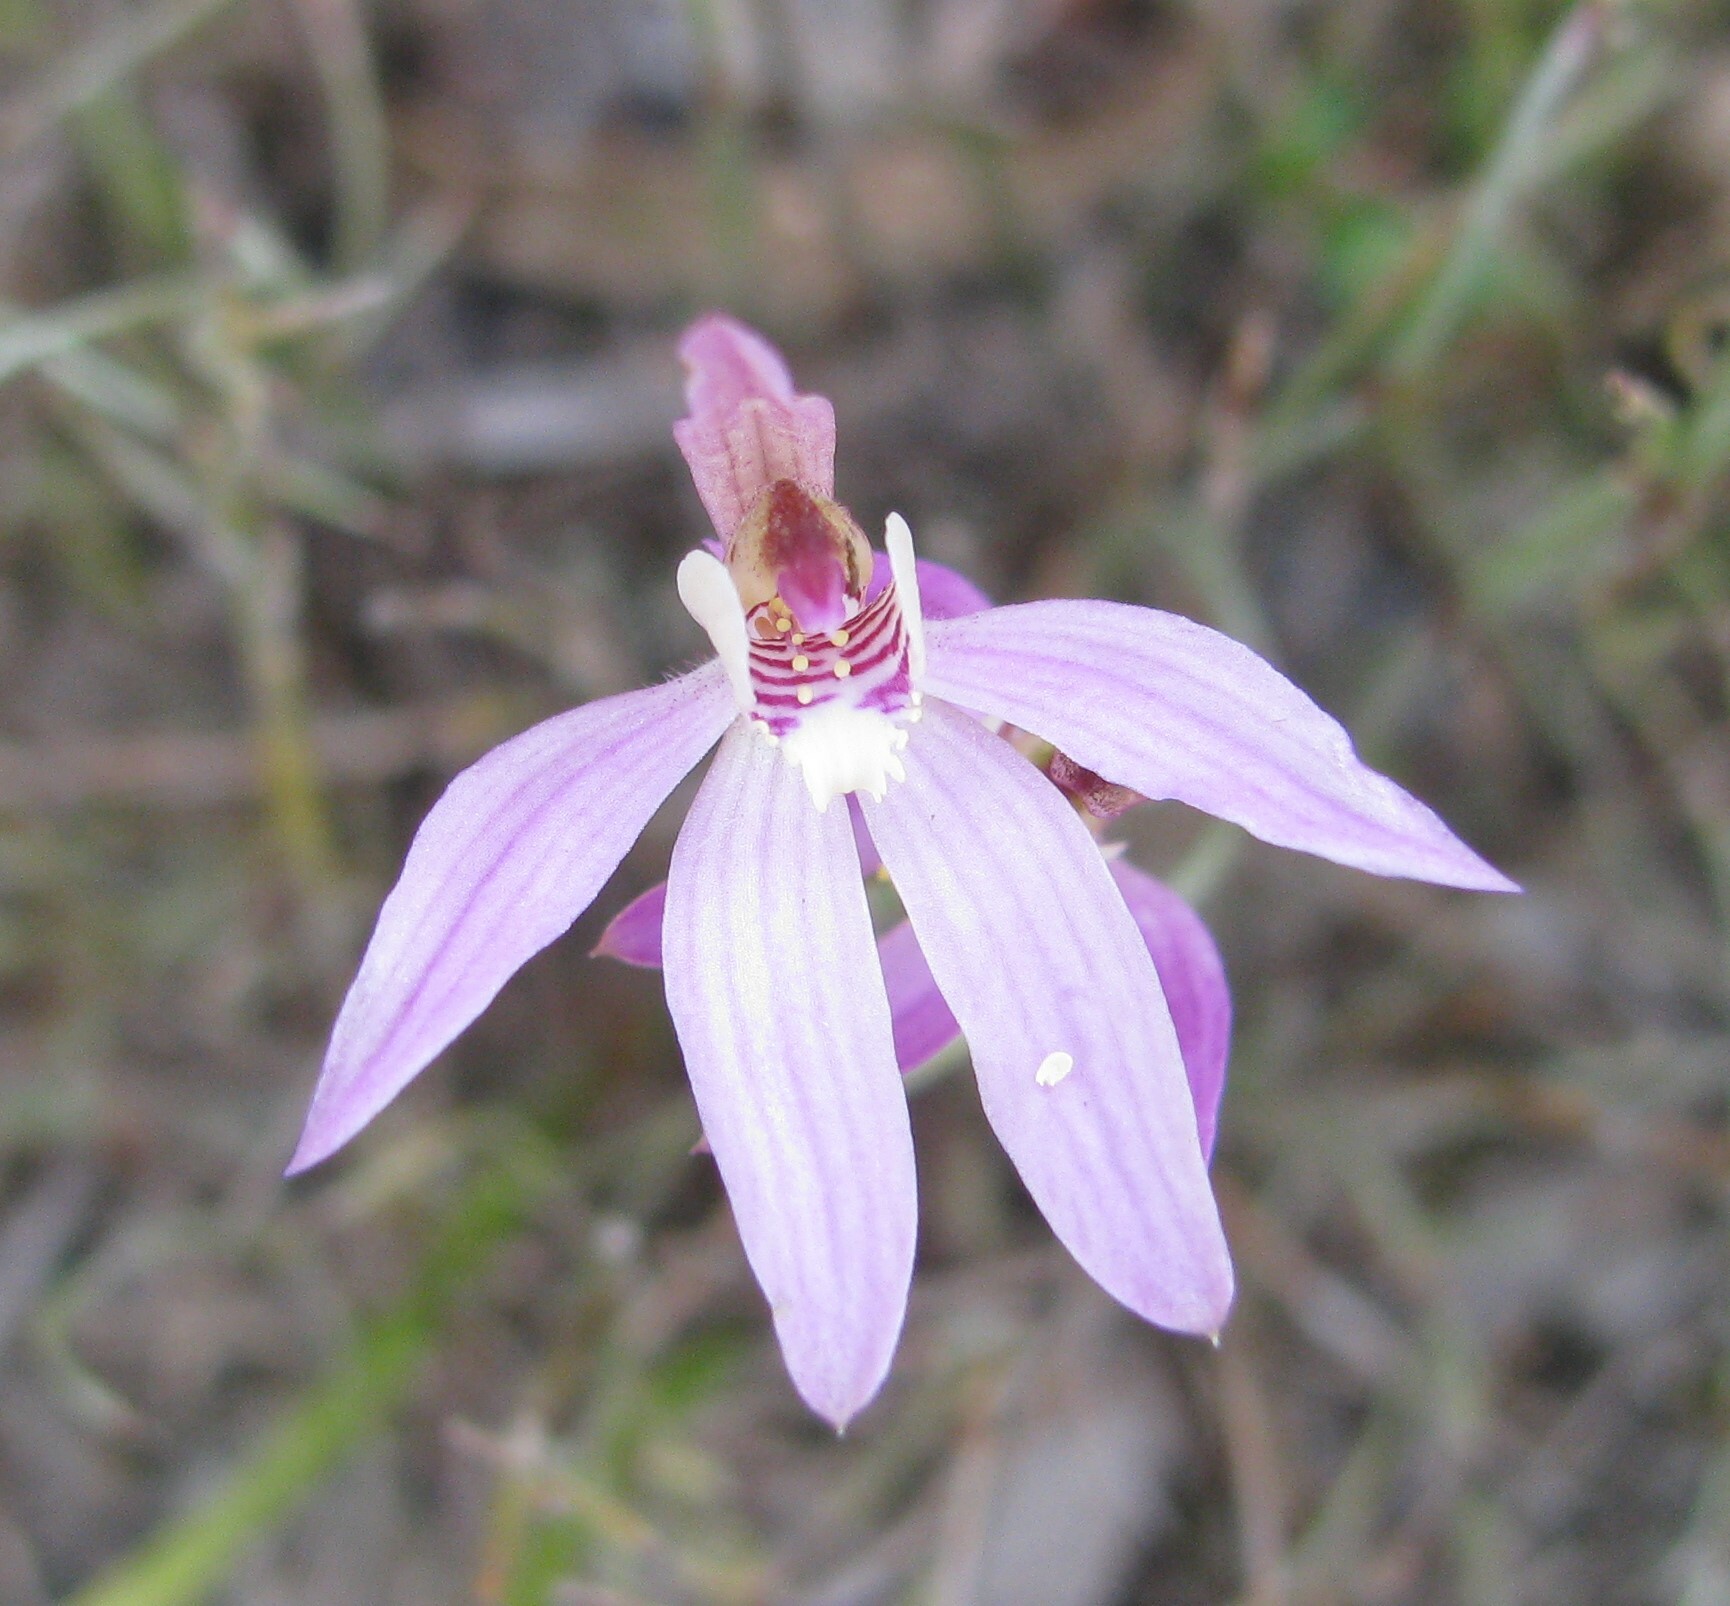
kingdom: Plantae
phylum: Tracheophyta
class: Liliopsida
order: Asparagales
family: Orchidaceae
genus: Caladenia
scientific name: Caladenia carnea
